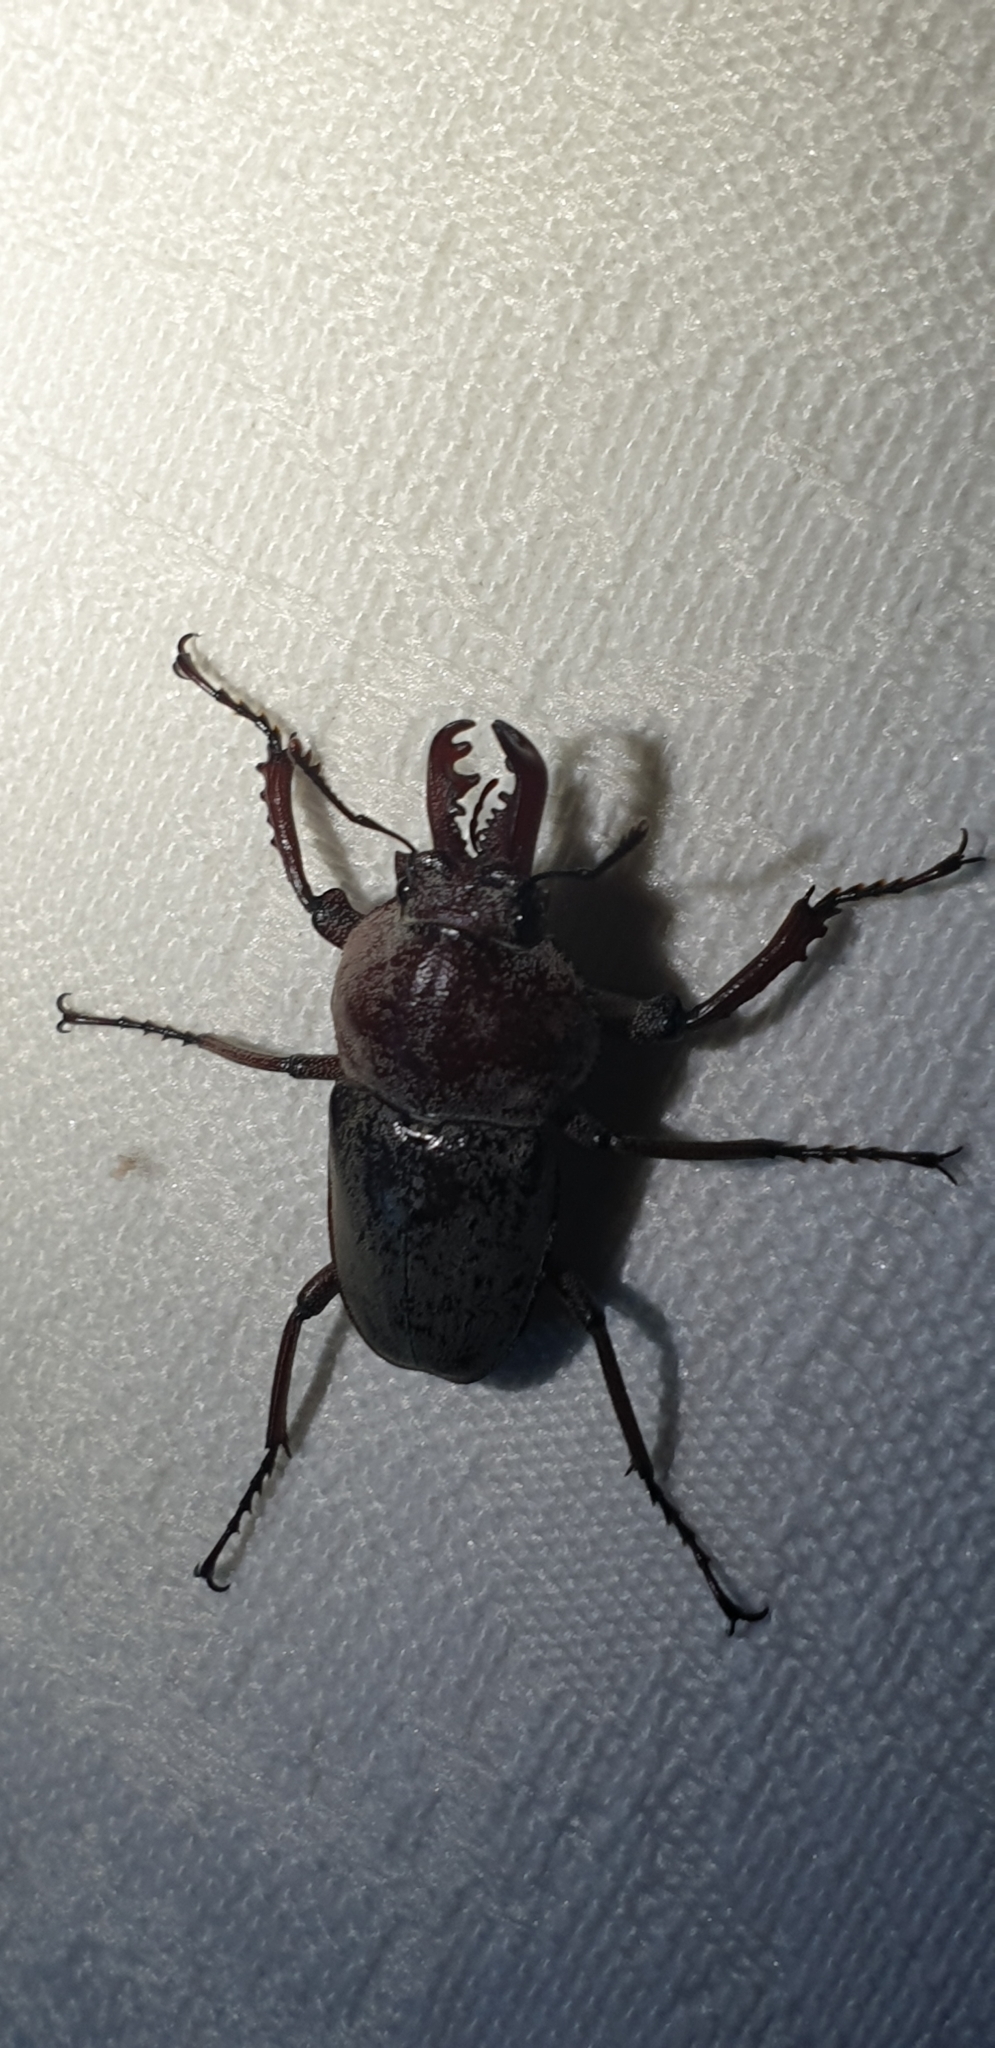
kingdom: Animalia
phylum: Arthropoda
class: Insecta
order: Coleoptera
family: Lucanidae
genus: Cacostomus
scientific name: Cacostomus squamosus
